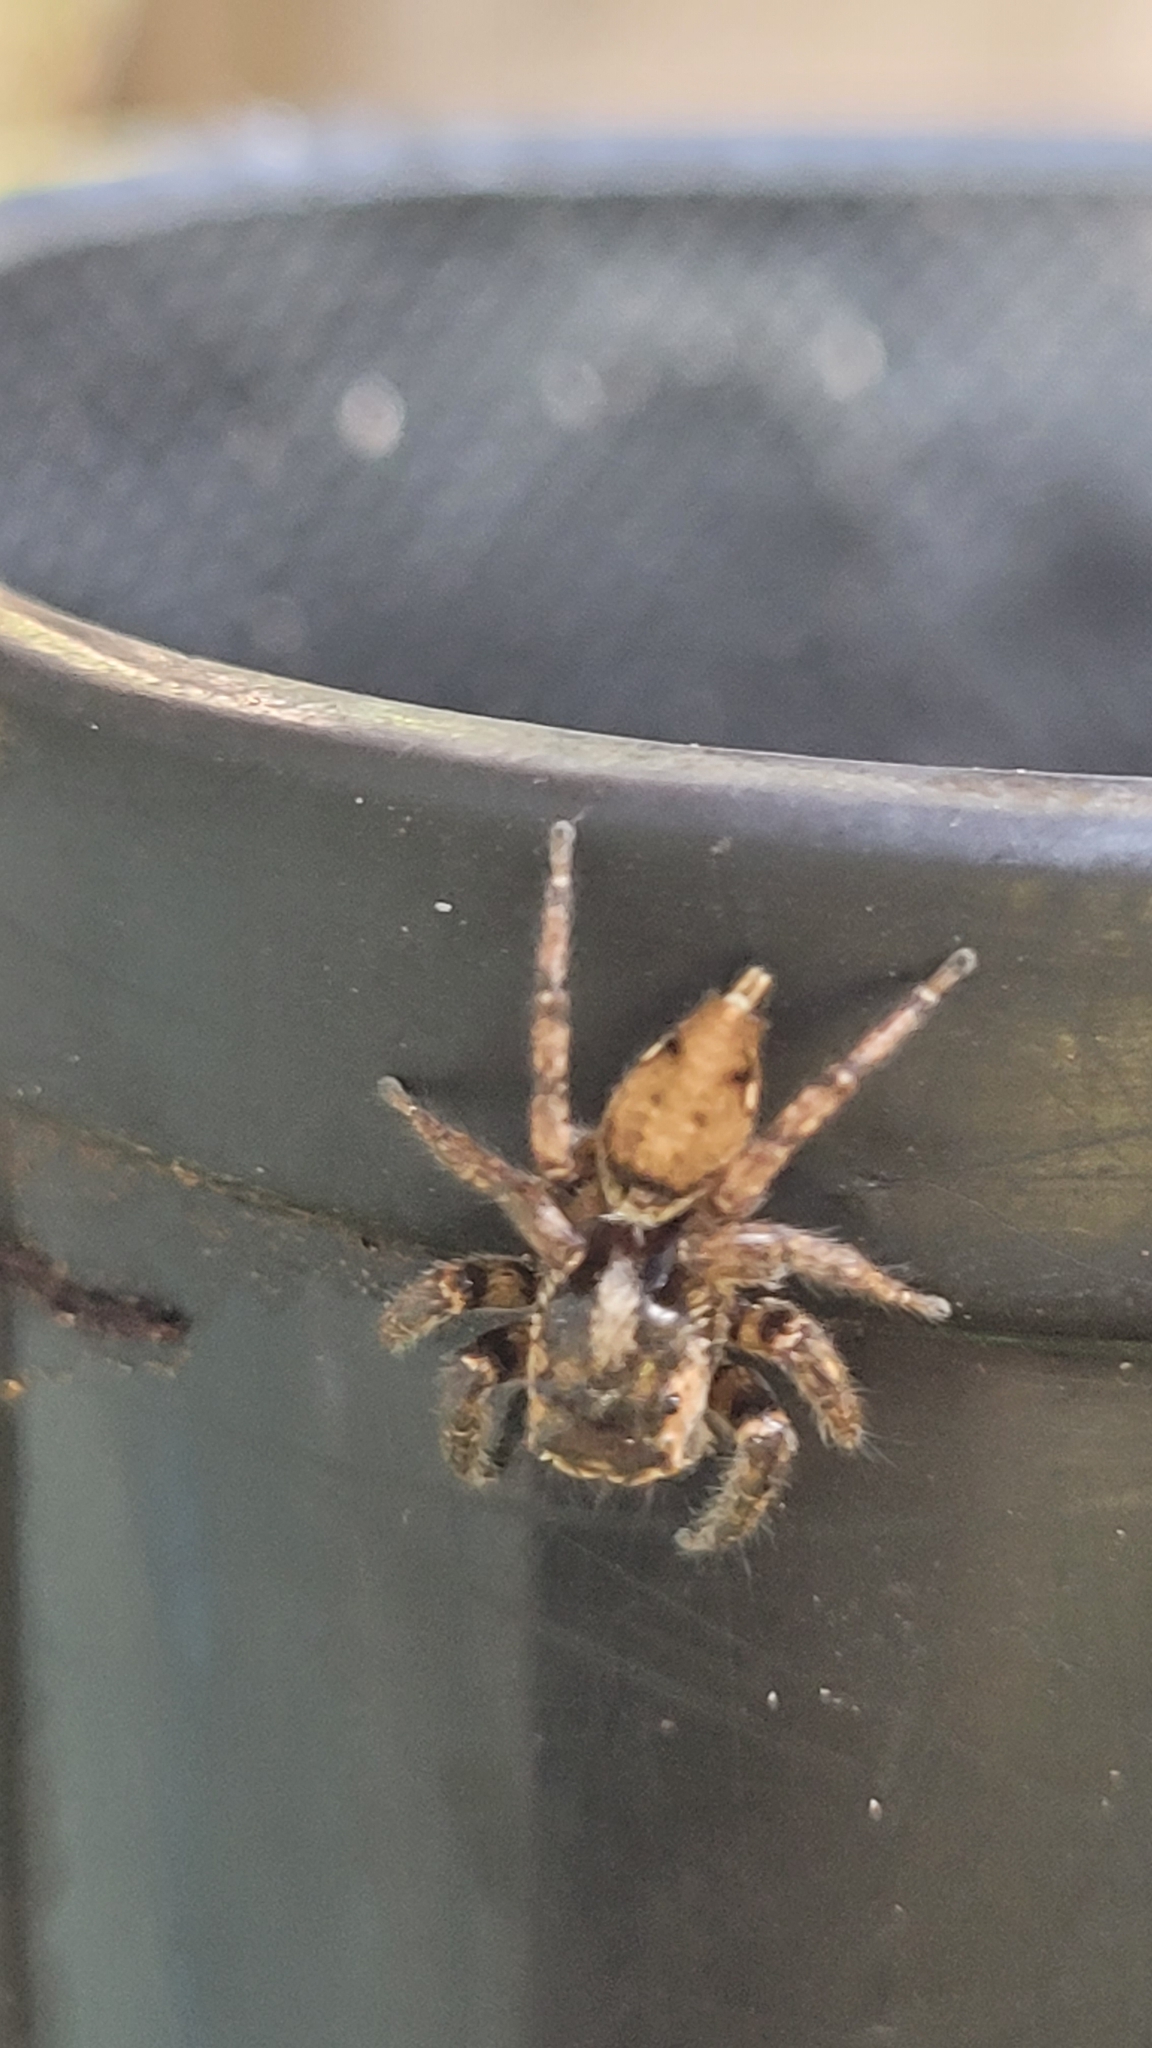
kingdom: Animalia
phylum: Arthropoda
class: Arachnida
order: Araneae
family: Salticidae
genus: Tarkas
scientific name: Tarkas maculatipes
